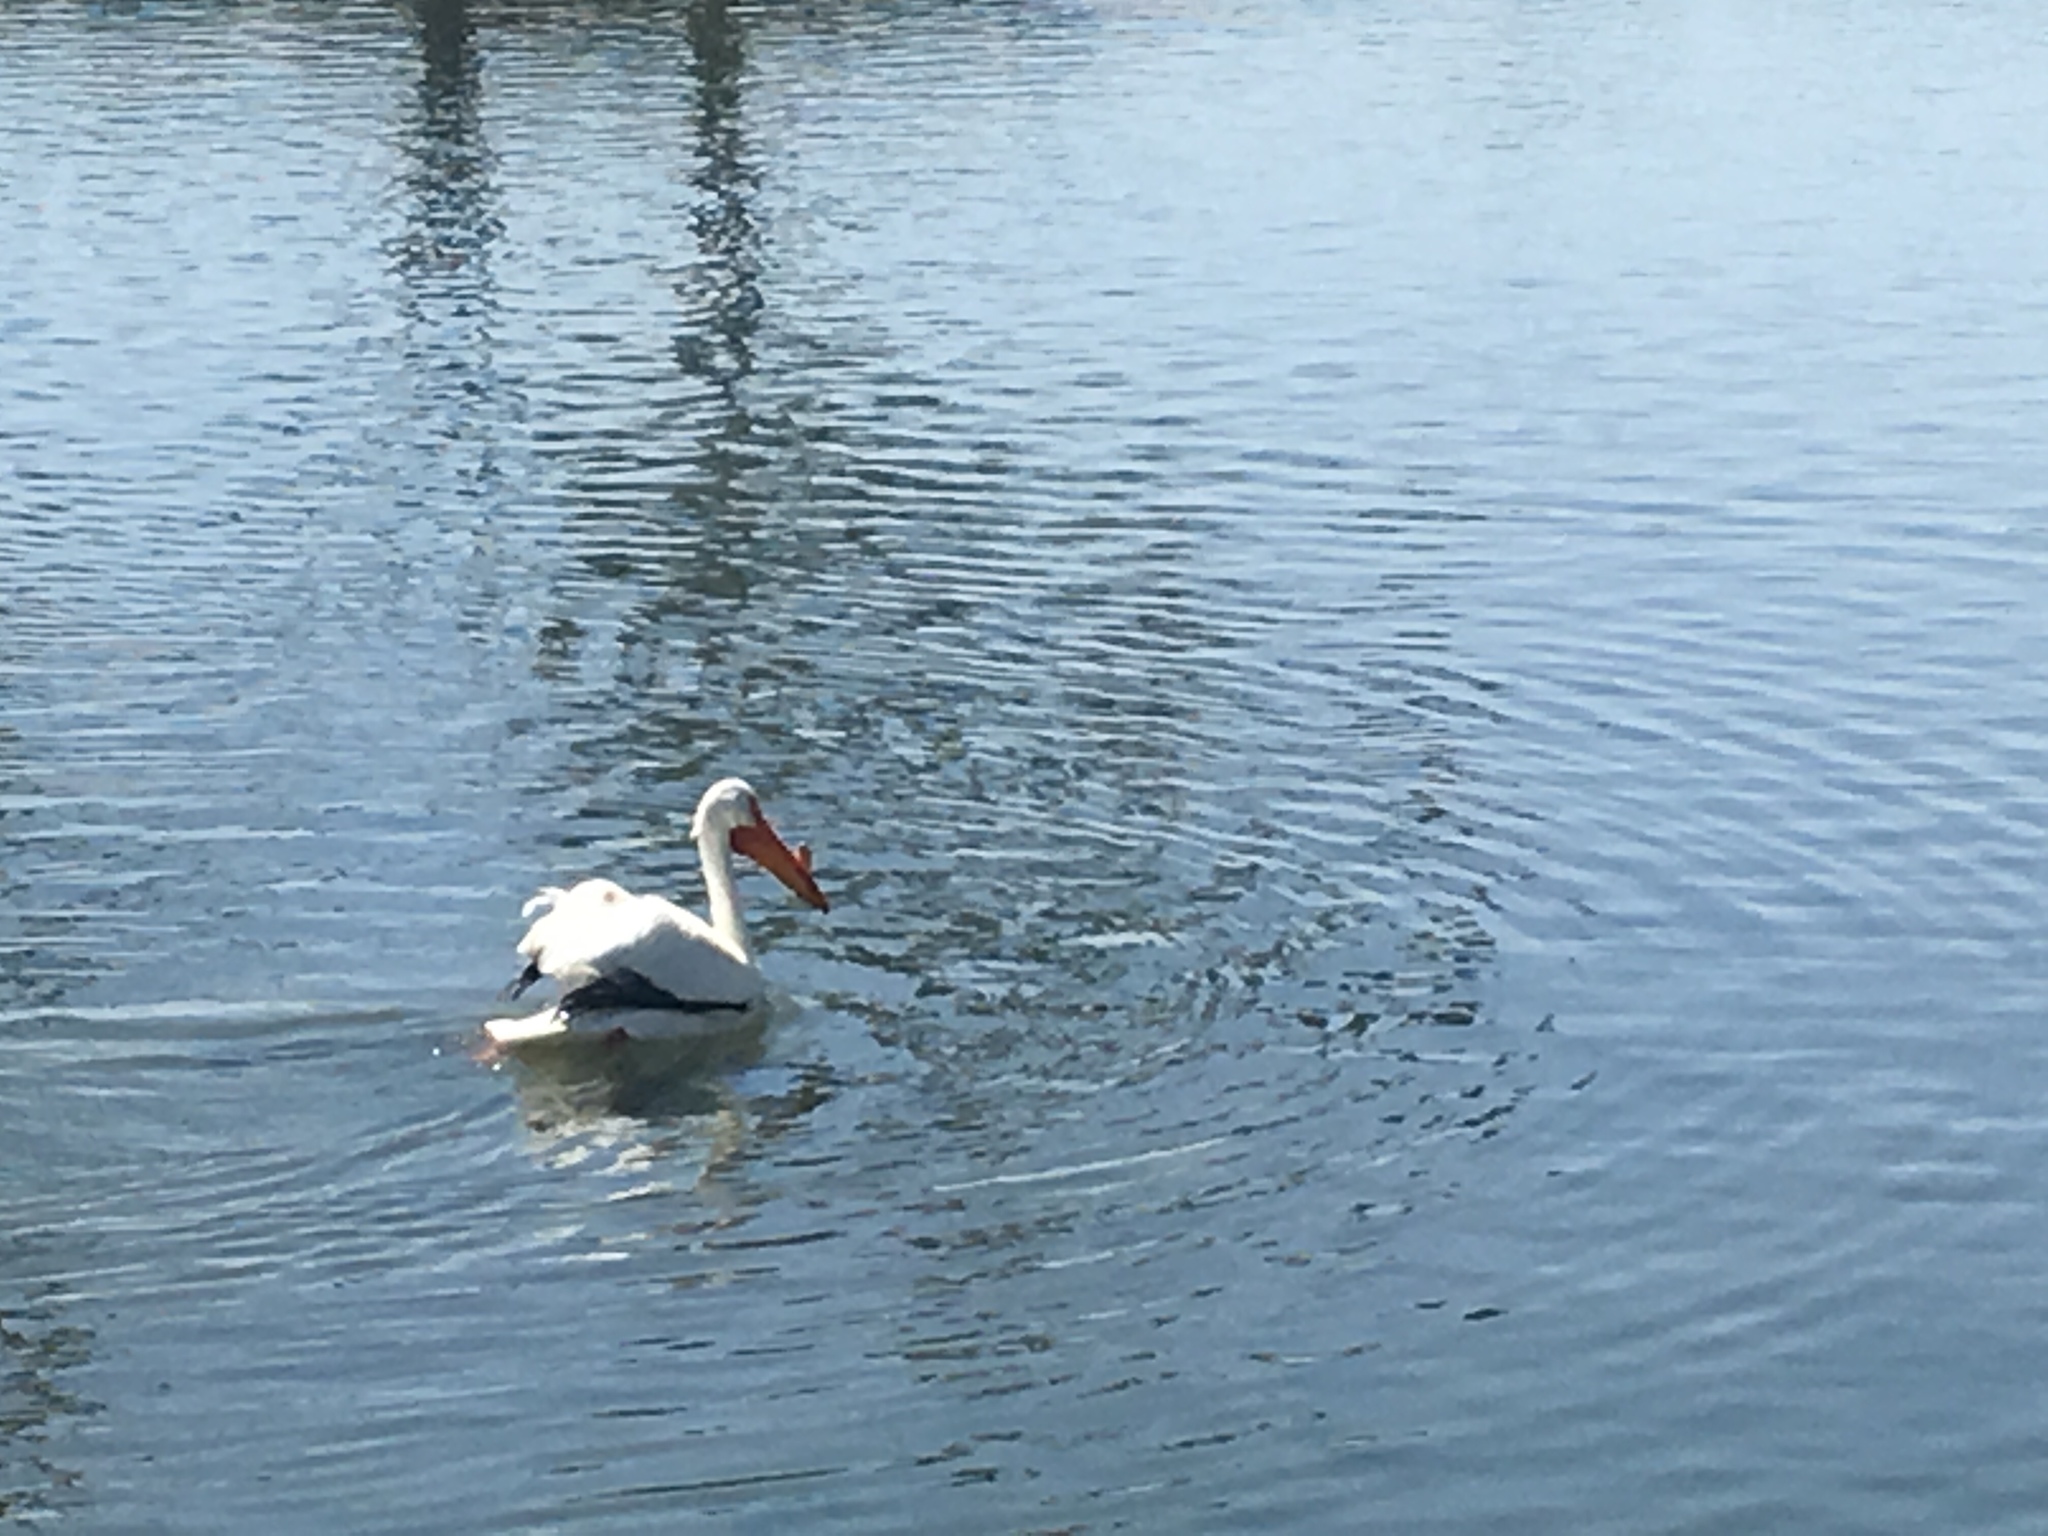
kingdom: Animalia
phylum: Chordata
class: Aves
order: Pelecaniformes
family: Pelecanidae
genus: Pelecanus
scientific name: Pelecanus erythrorhynchos
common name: American white pelican
